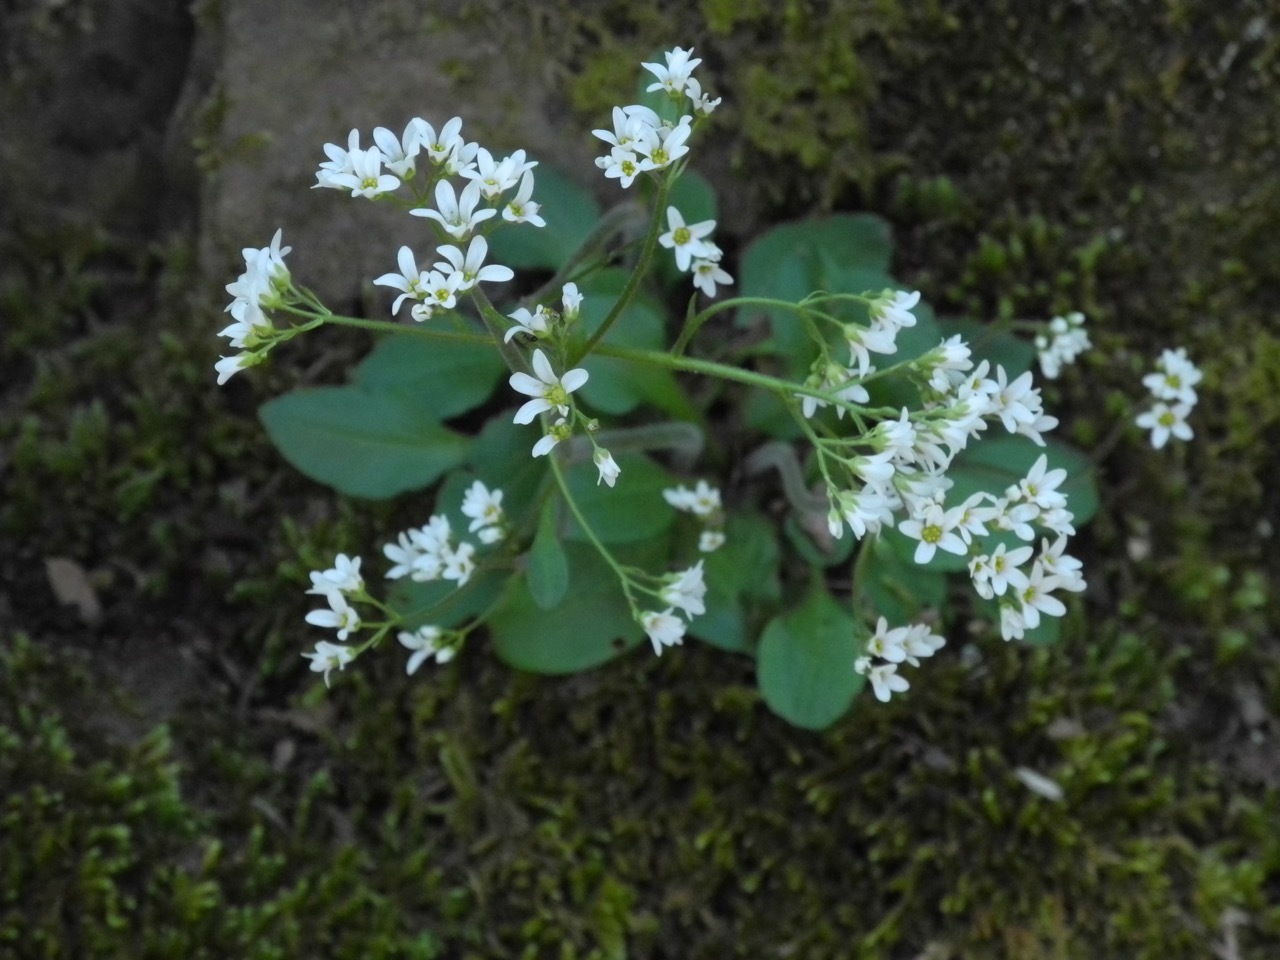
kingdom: Plantae
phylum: Tracheophyta
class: Magnoliopsida
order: Saxifragales
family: Saxifragaceae
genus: Micranthes
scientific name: Micranthes virginiensis
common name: Early saxifrage
